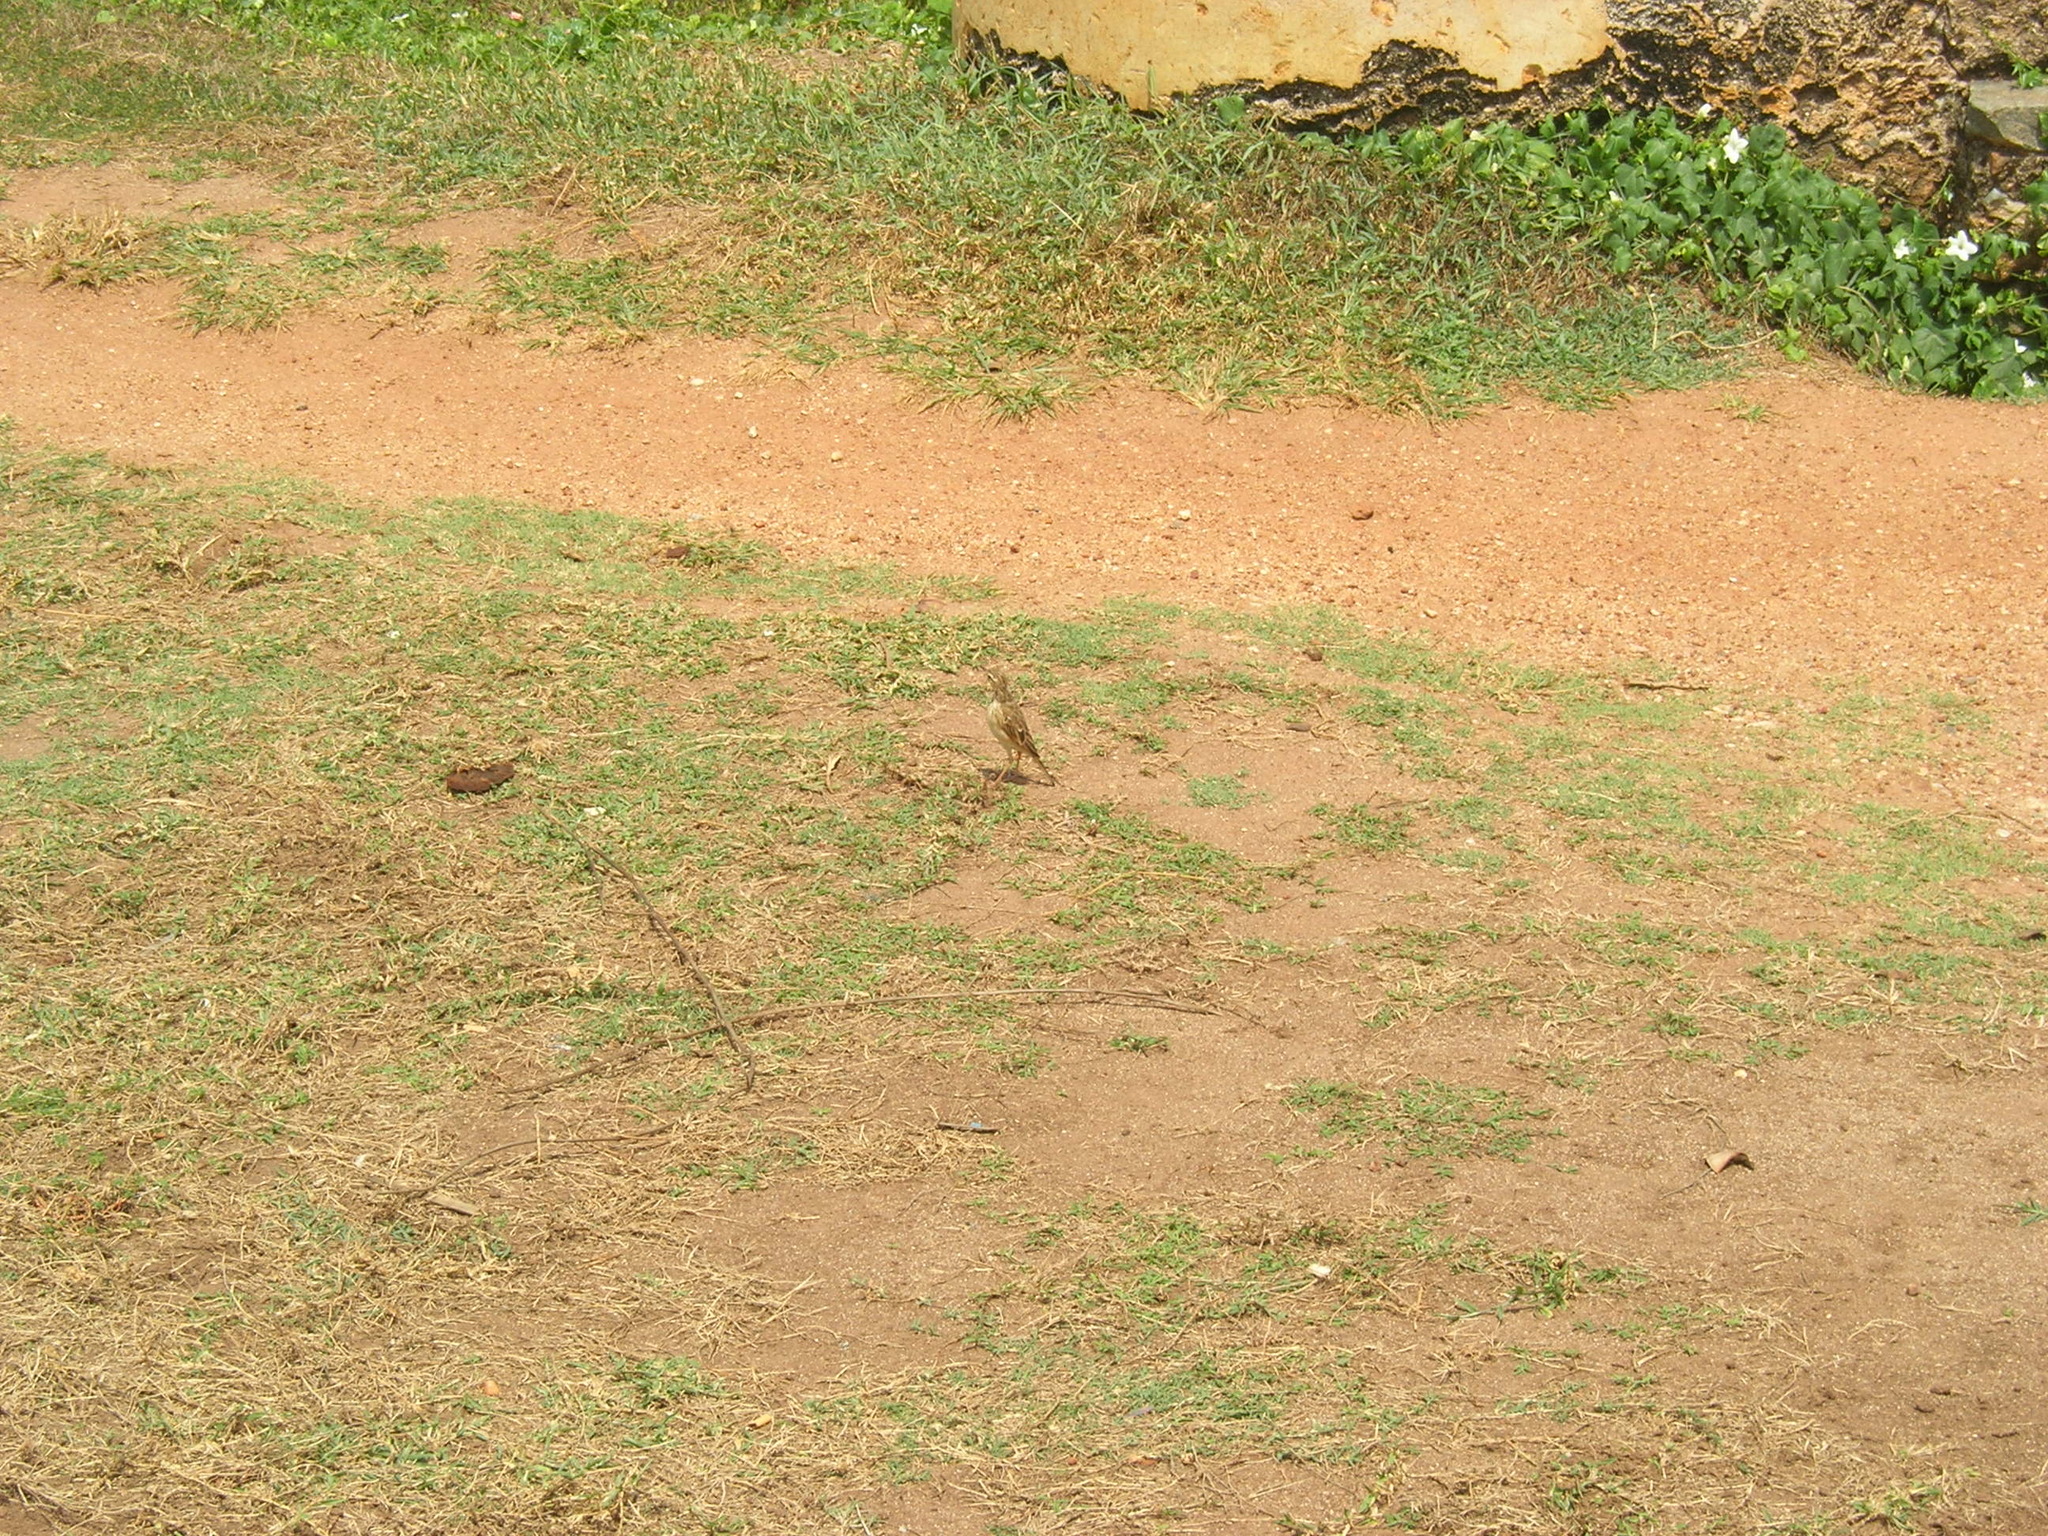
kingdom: Animalia
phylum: Chordata
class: Aves
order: Passeriformes
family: Motacillidae
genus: Anthus
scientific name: Anthus rufulus
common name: Paddyfield pipit
